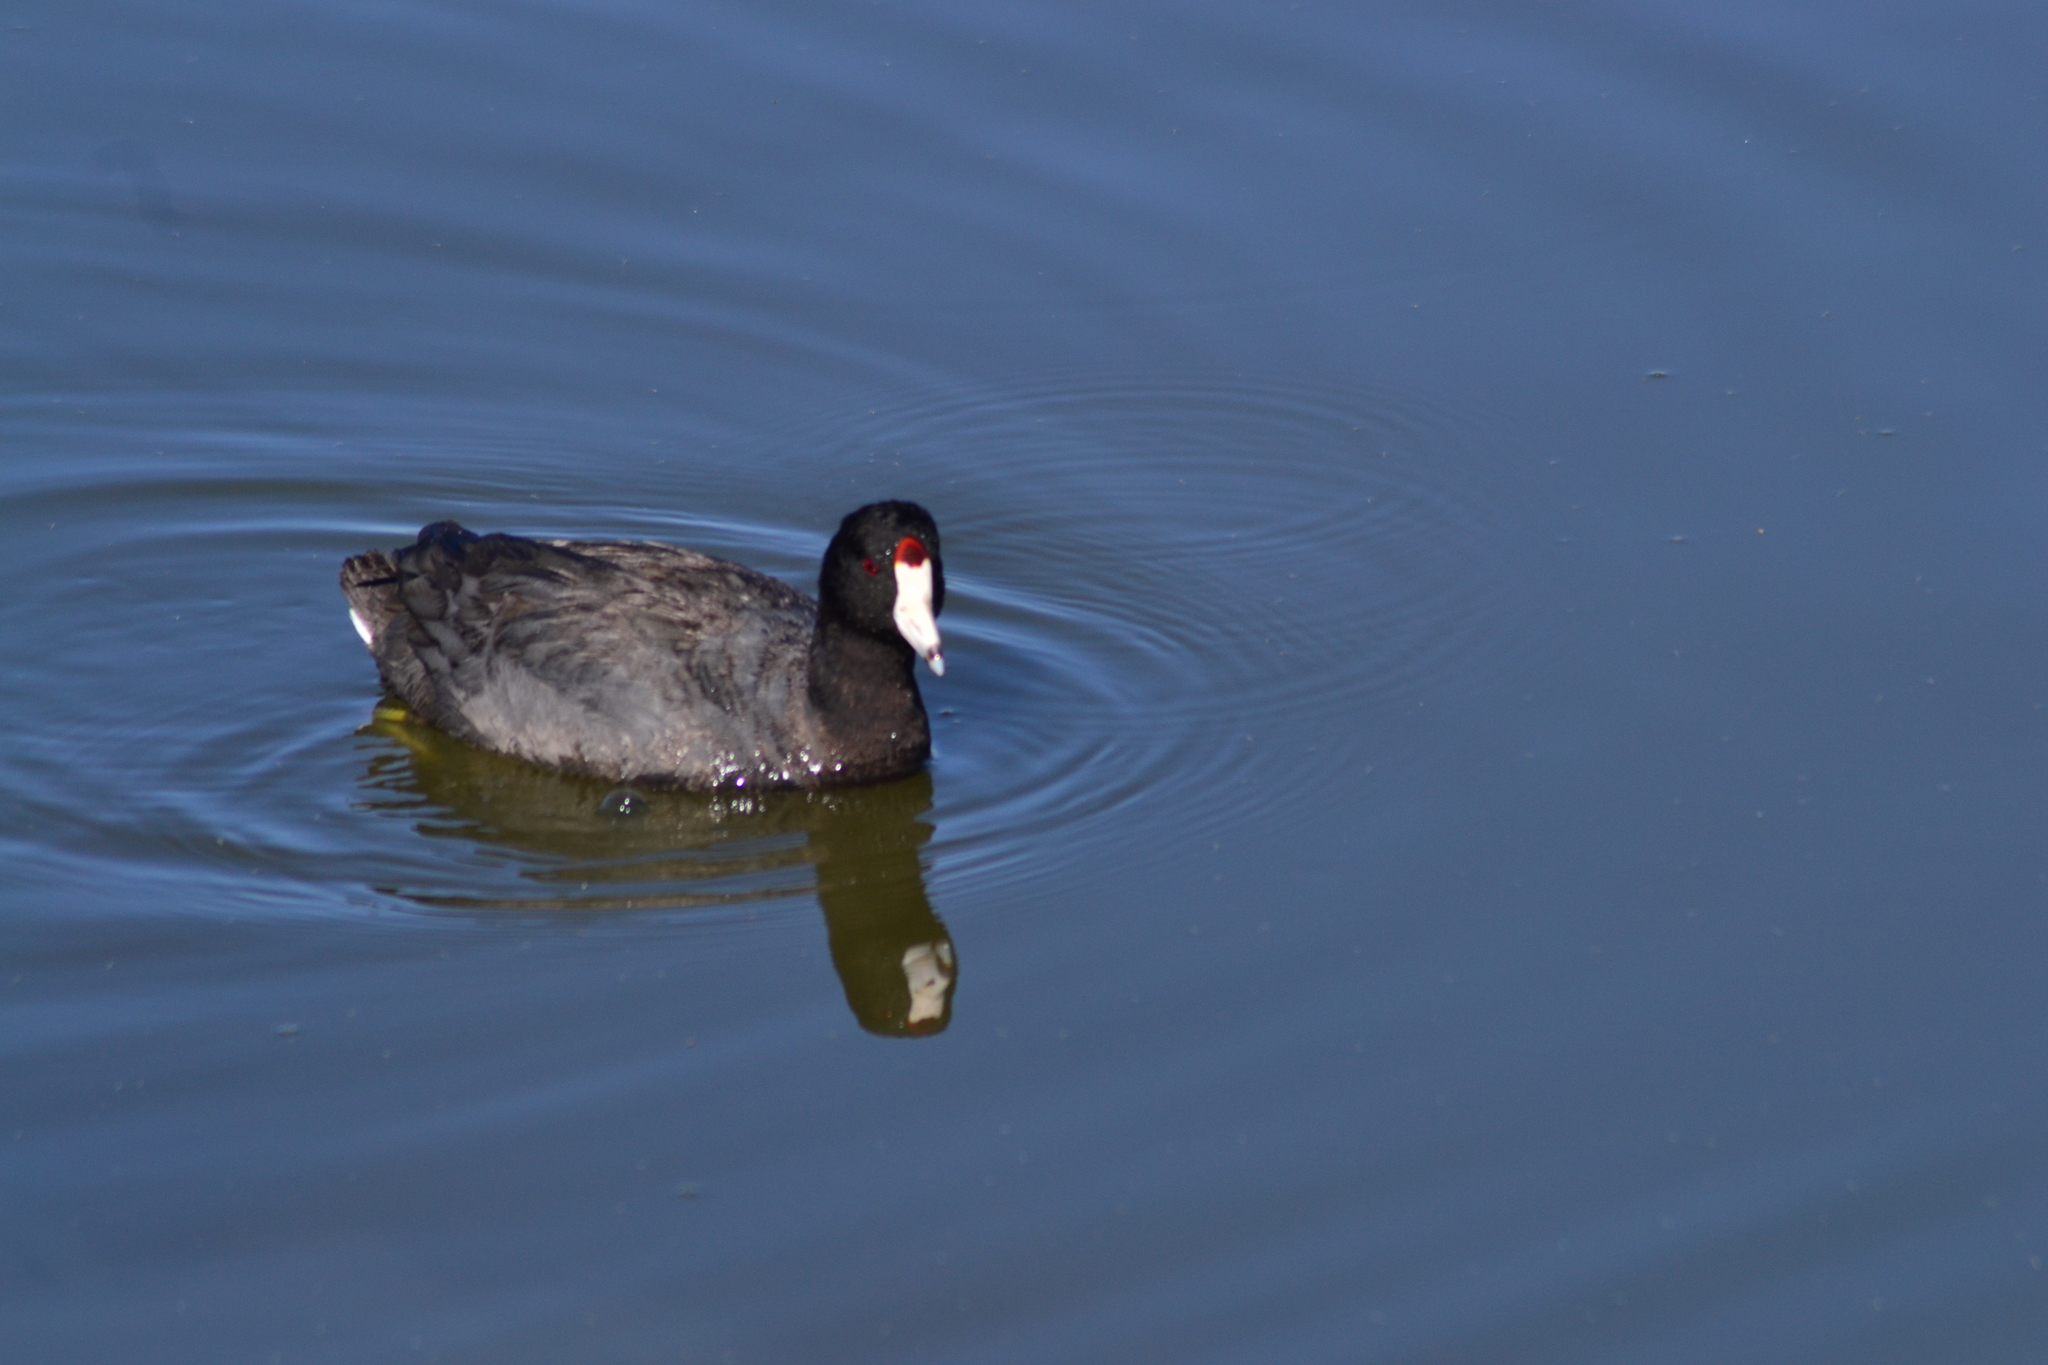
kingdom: Animalia
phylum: Chordata
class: Aves
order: Gruiformes
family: Rallidae
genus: Fulica
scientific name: Fulica americana
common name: American coot
